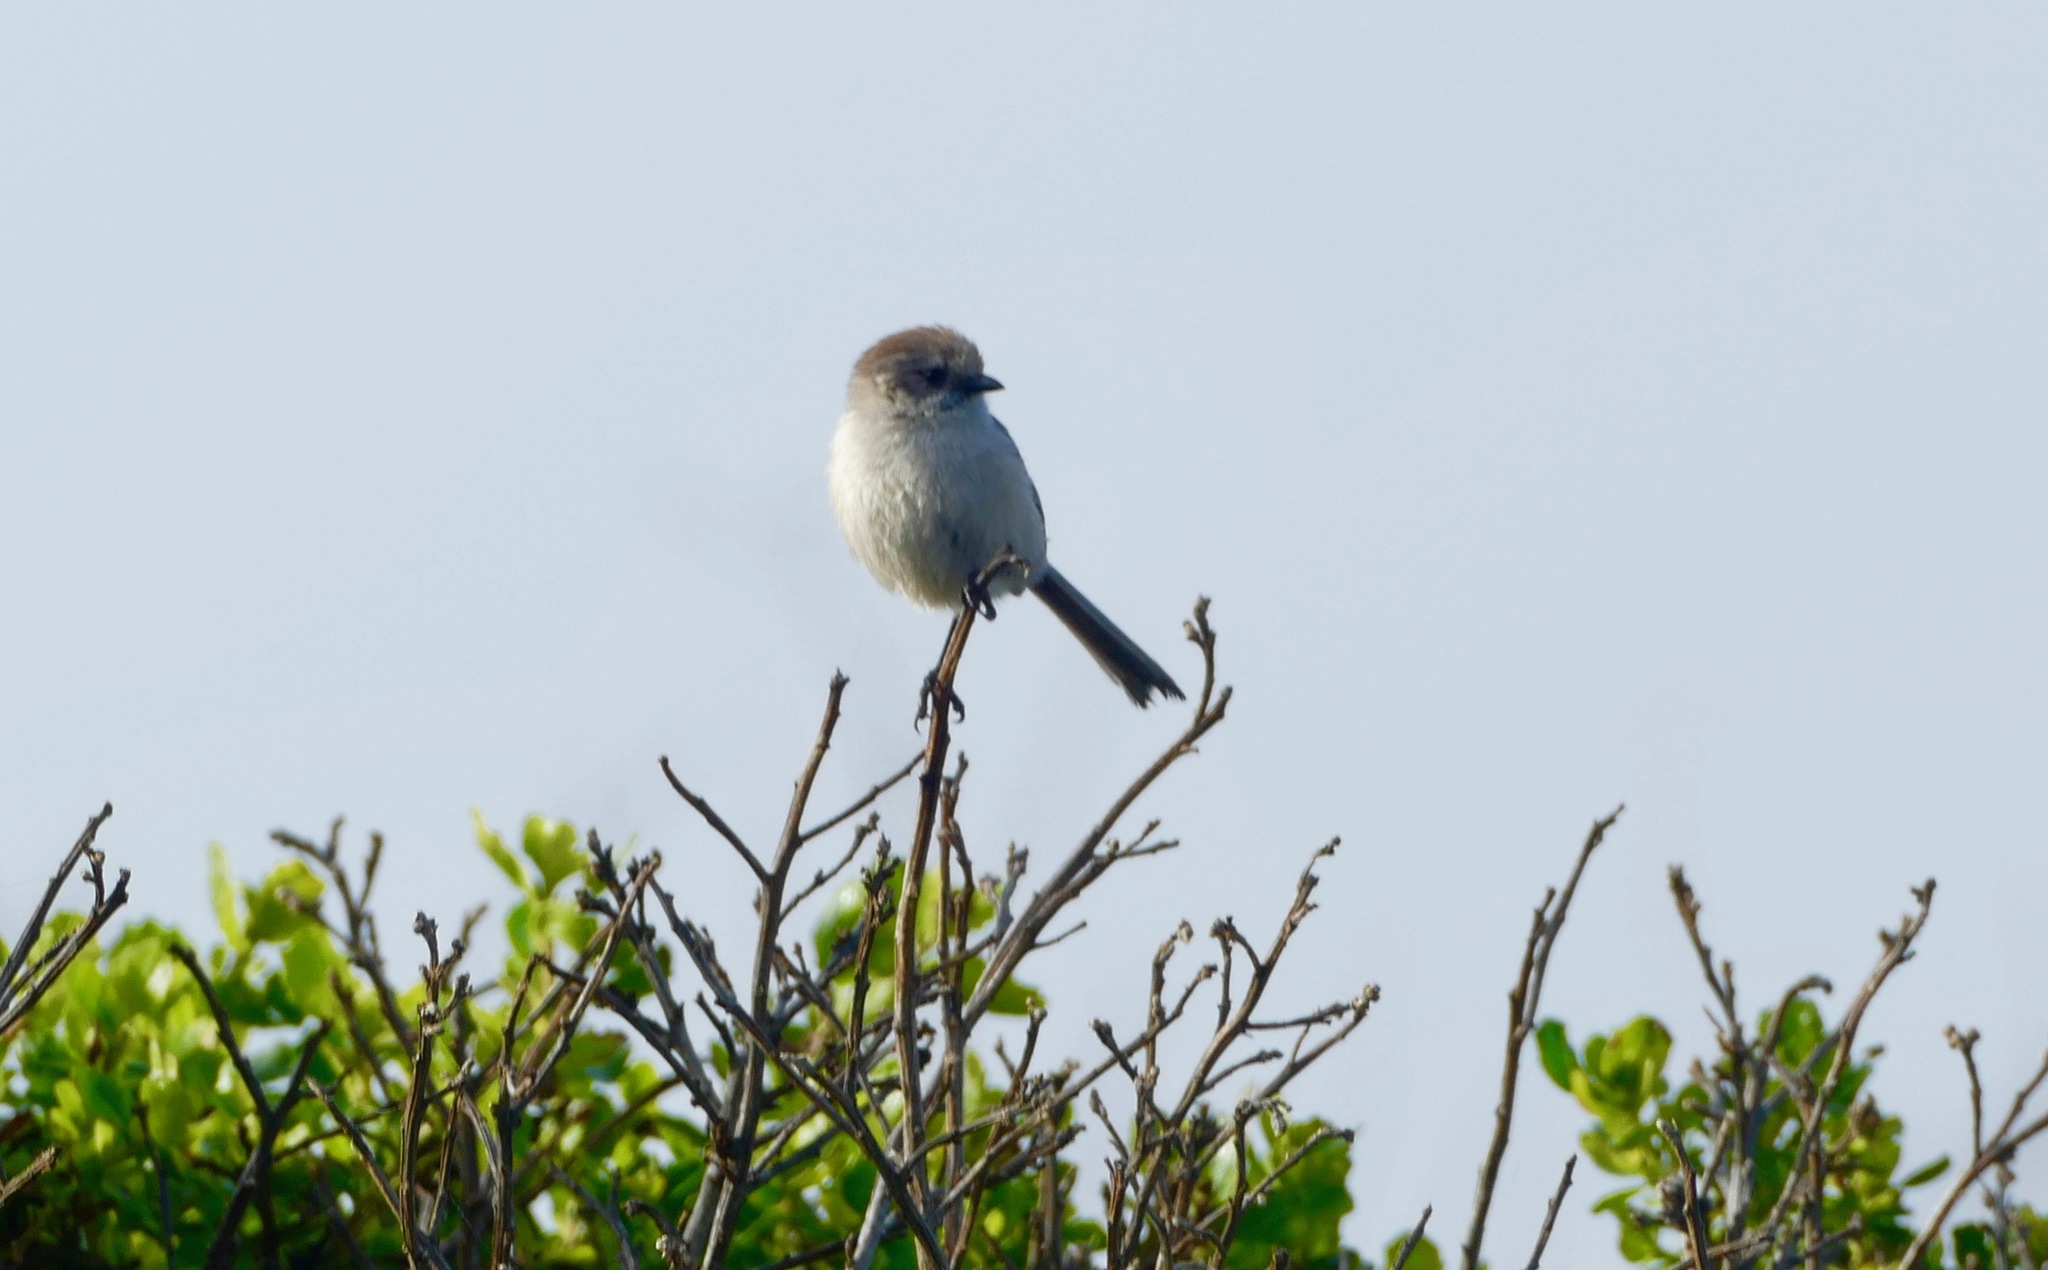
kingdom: Animalia
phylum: Chordata
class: Aves
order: Passeriformes
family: Aegithalidae
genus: Psaltriparus
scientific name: Psaltriparus minimus
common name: American bushtit
